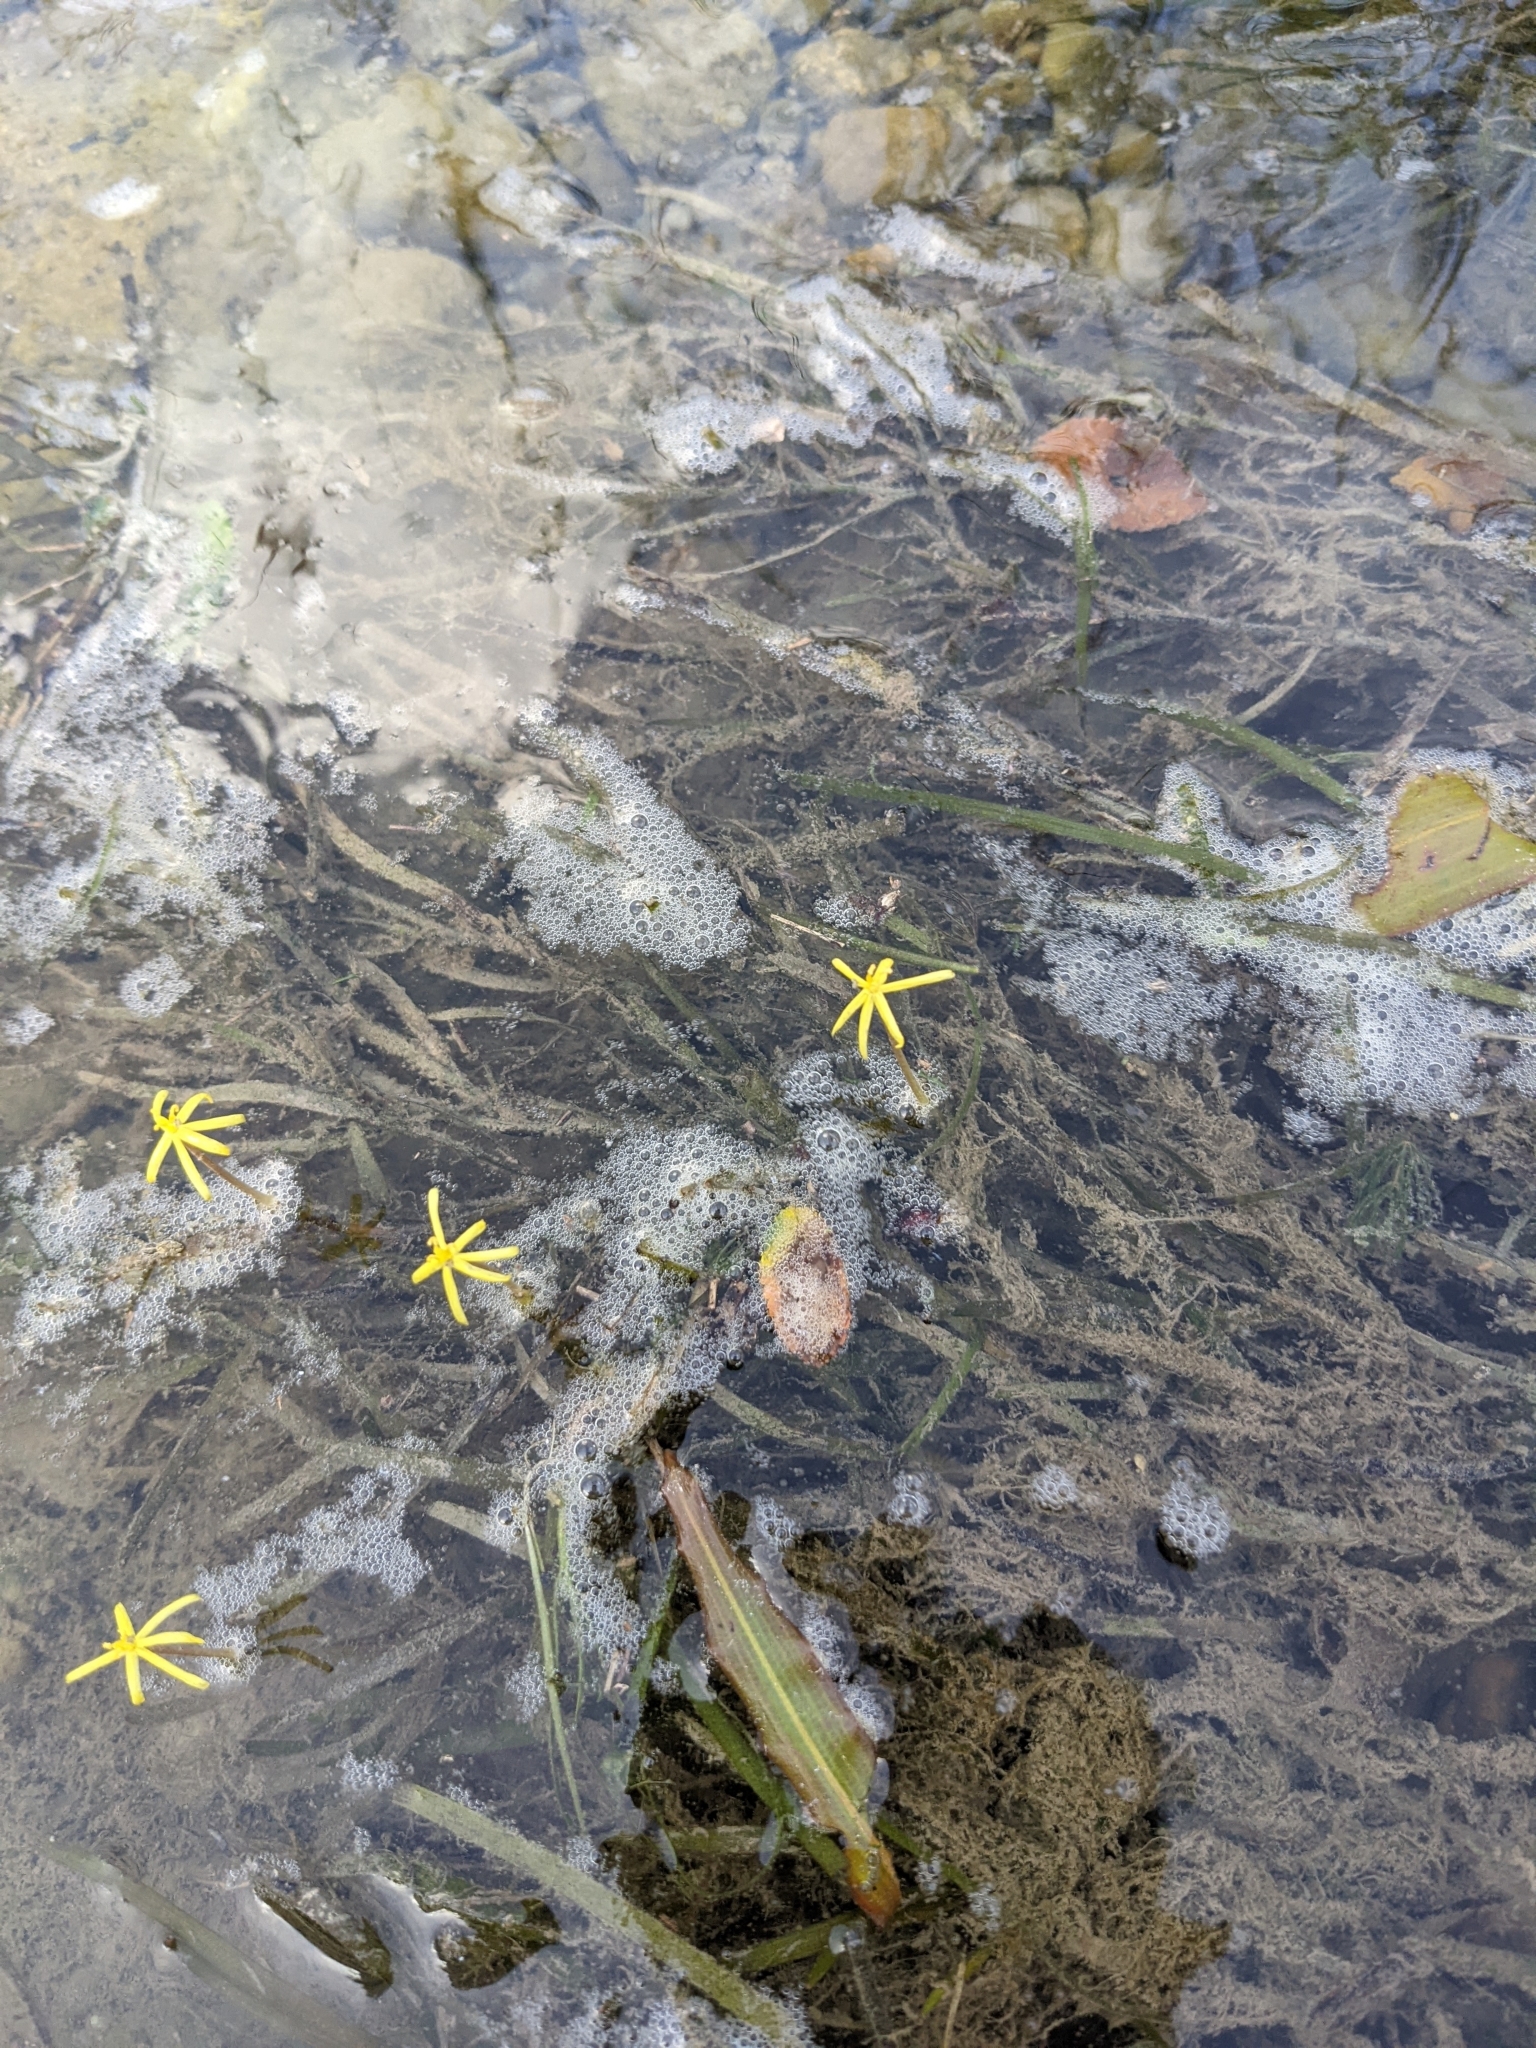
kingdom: Plantae
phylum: Tracheophyta
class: Liliopsida
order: Commelinales
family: Pontederiaceae
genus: Heteranthera
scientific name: Heteranthera dubia
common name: Grass-leaved mud plantain
